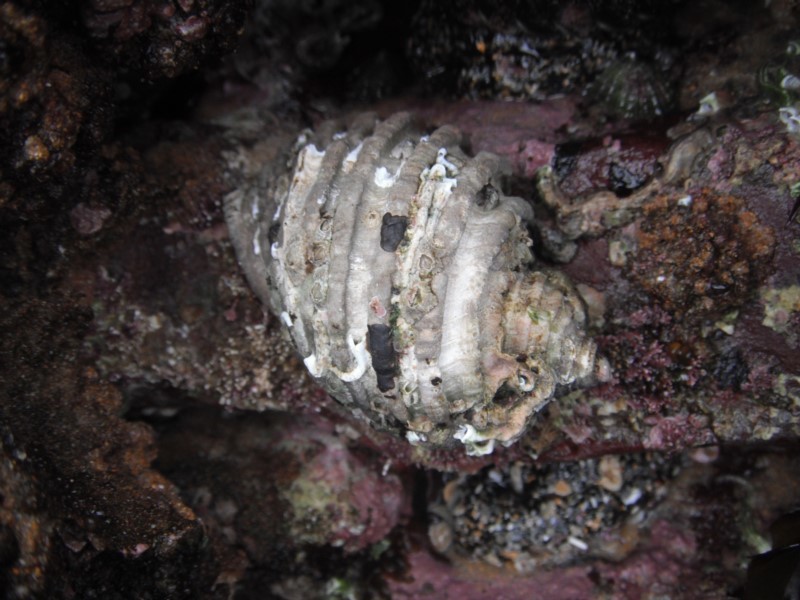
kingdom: Animalia
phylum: Mollusca
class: Gastropoda
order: Neogastropoda
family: Muricidae
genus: Dicathais
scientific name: Dicathais orbita
